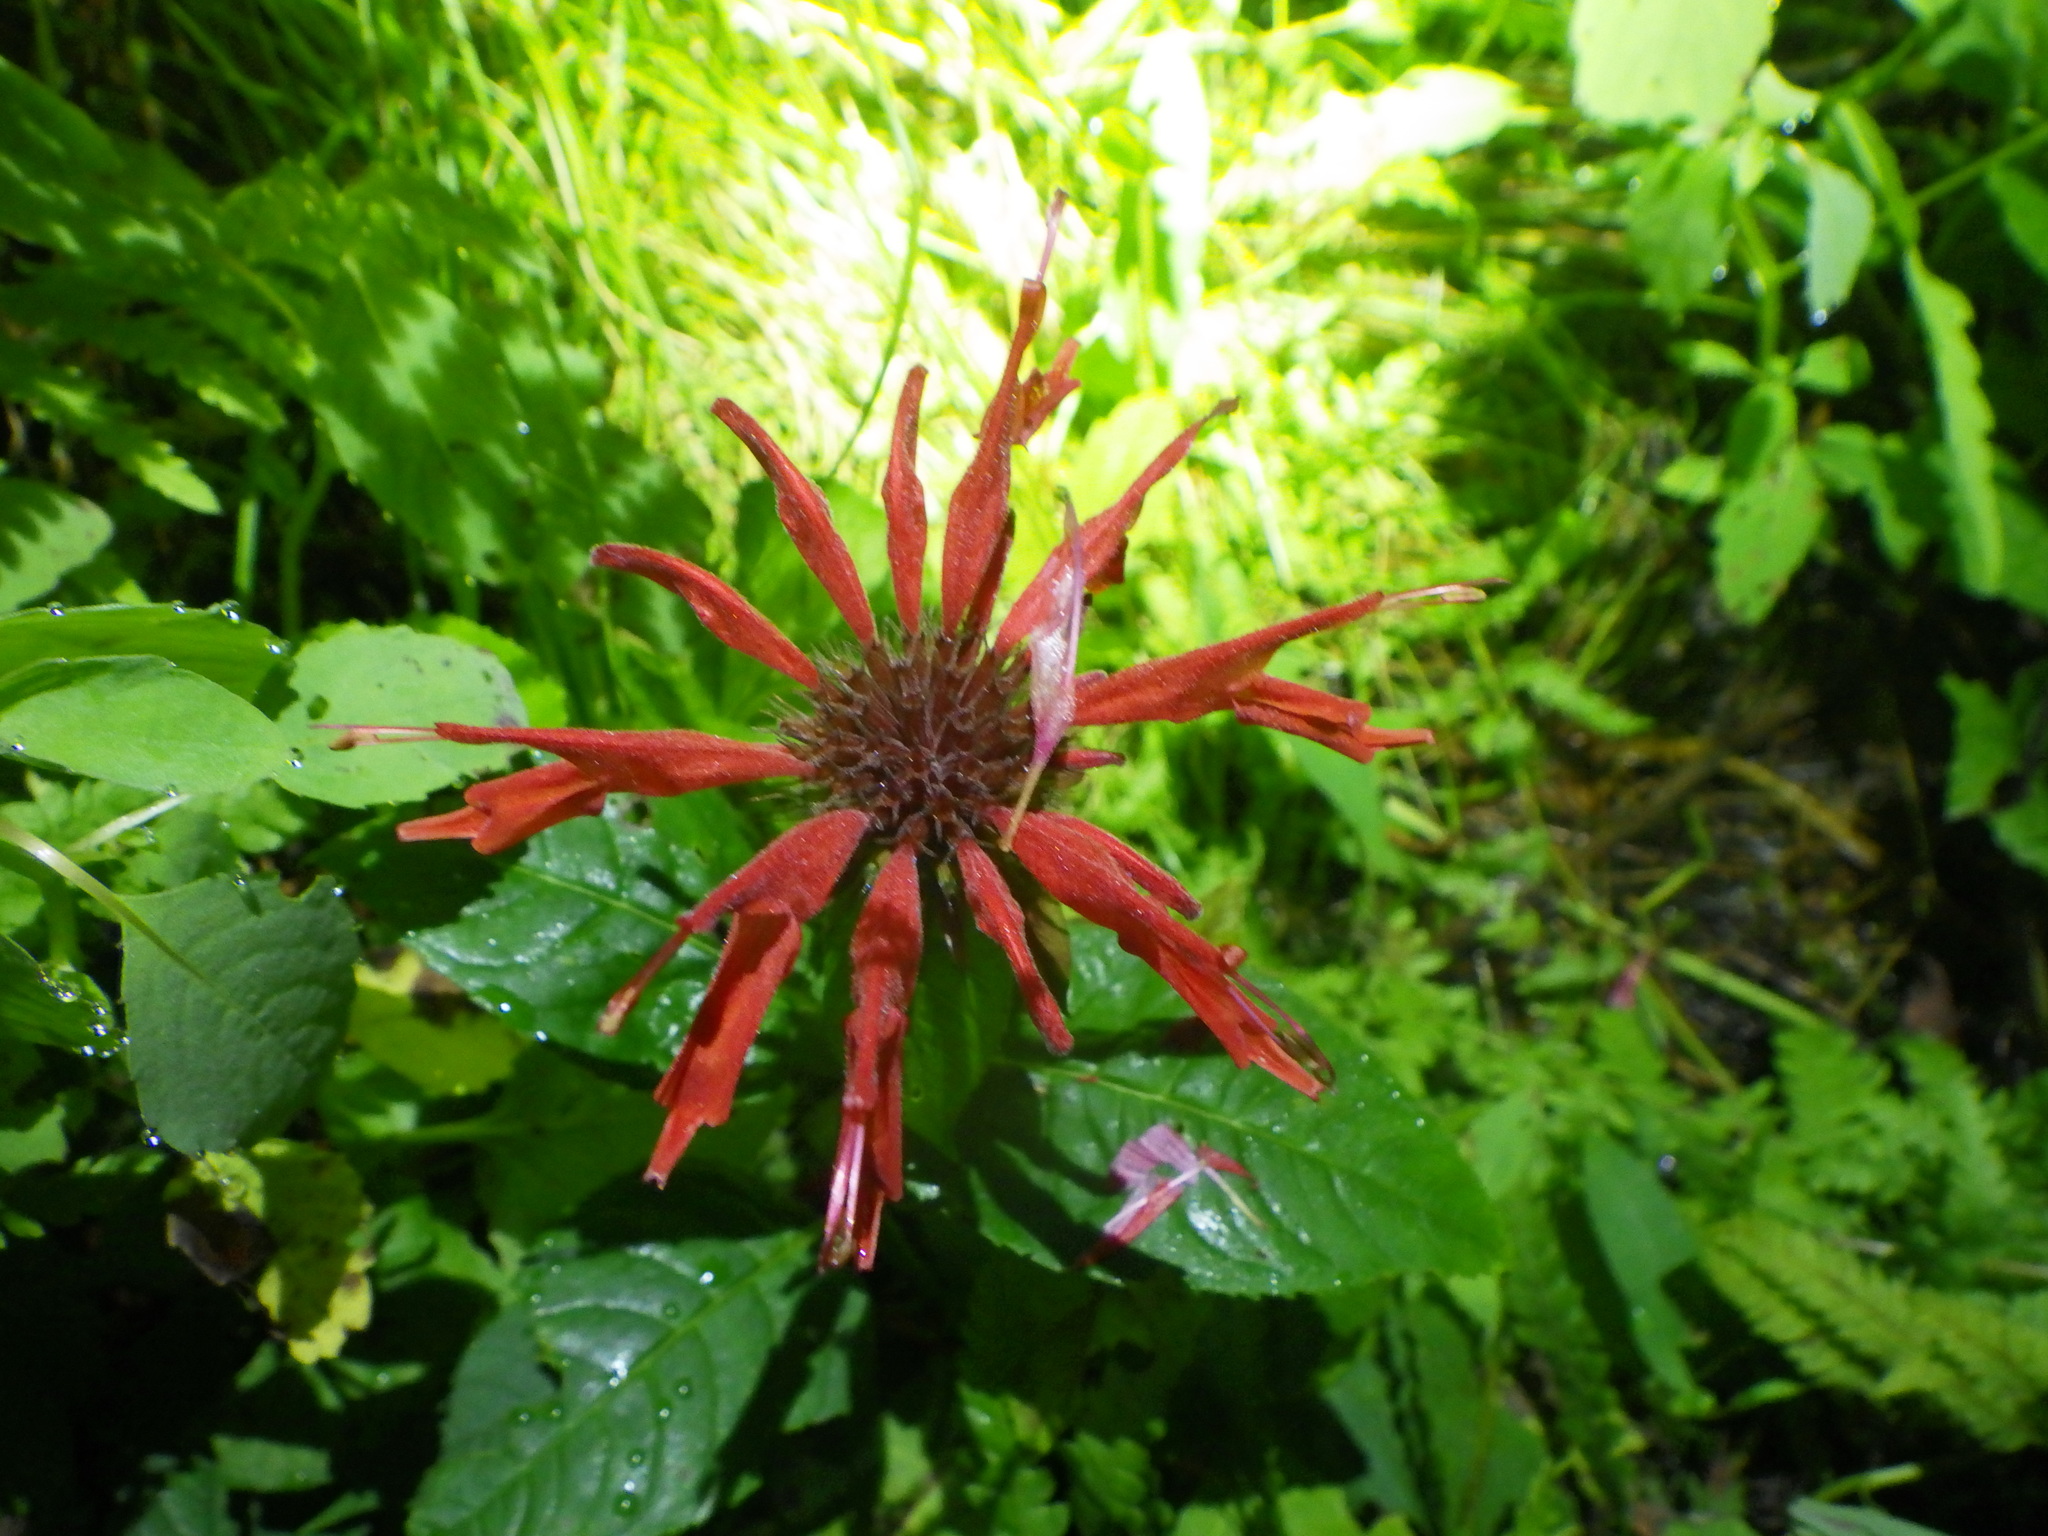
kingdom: Plantae
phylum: Tracheophyta
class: Magnoliopsida
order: Lamiales
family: Lamiaceae
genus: Monarda
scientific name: Monarda didyma
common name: Beebalm
